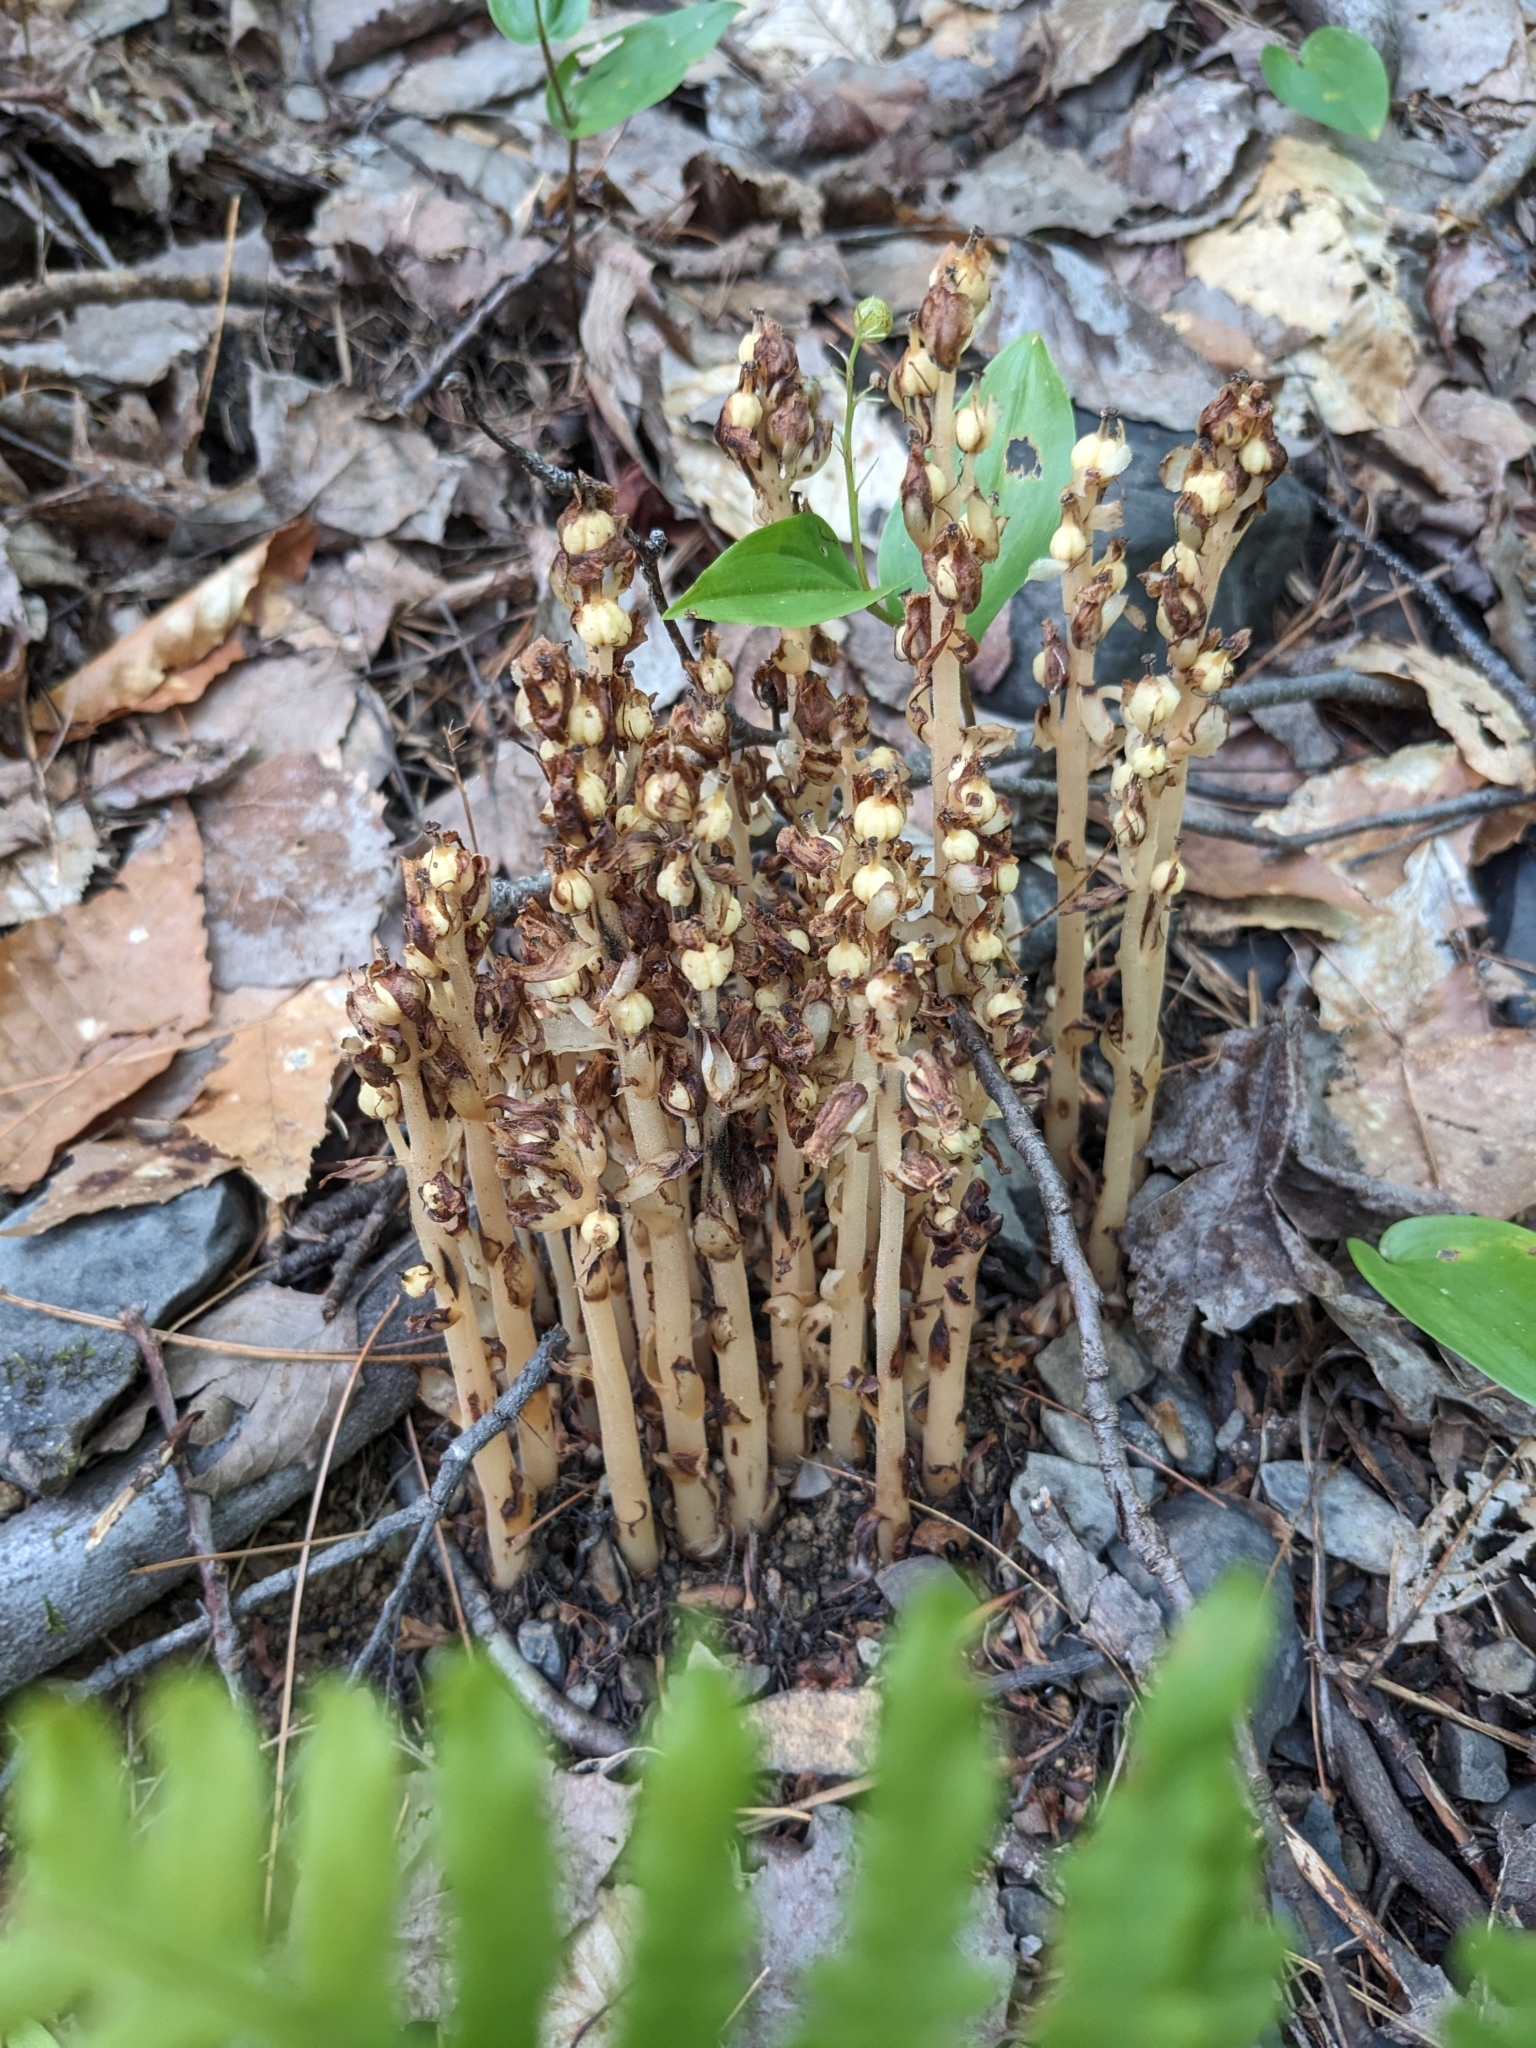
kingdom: Plantae
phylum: Tracheophyta
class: Magnoliopsida
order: Ericales
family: Ericaceae
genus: Hypopitys
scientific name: Hypopitys monotropa
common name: Yellow bird's-nest
